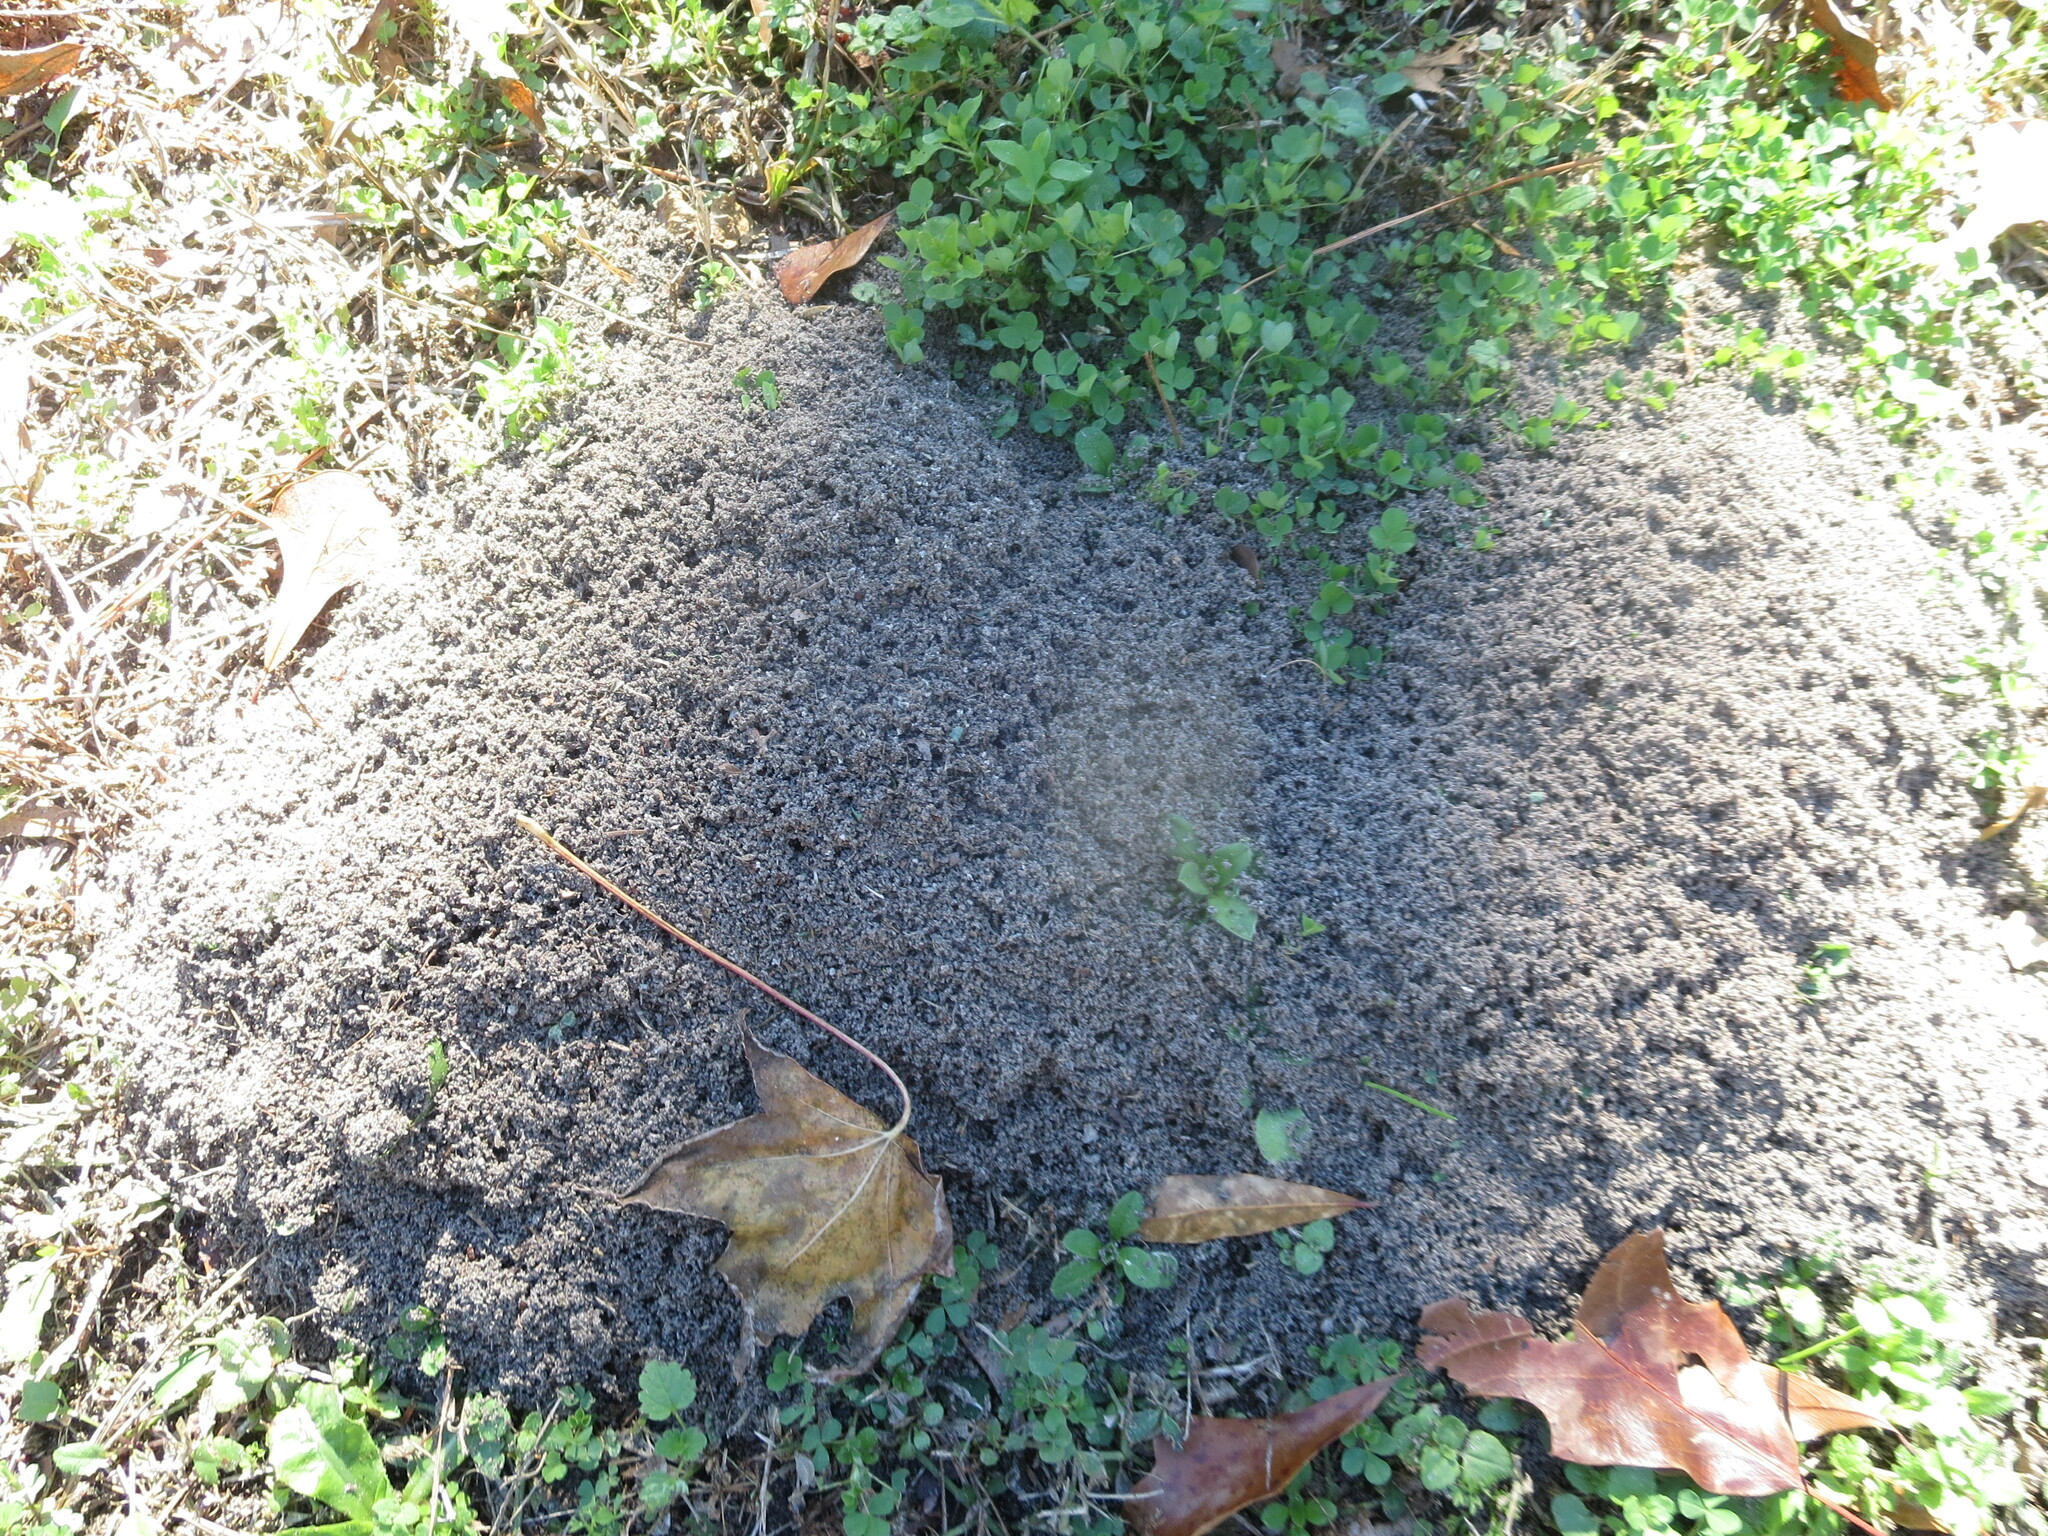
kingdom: Animalia
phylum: Arthropoda
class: Insecta
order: Hymenoptera
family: Formicidae
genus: Solenopsis
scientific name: Solenopsis invicta
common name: Red imported fire ant
